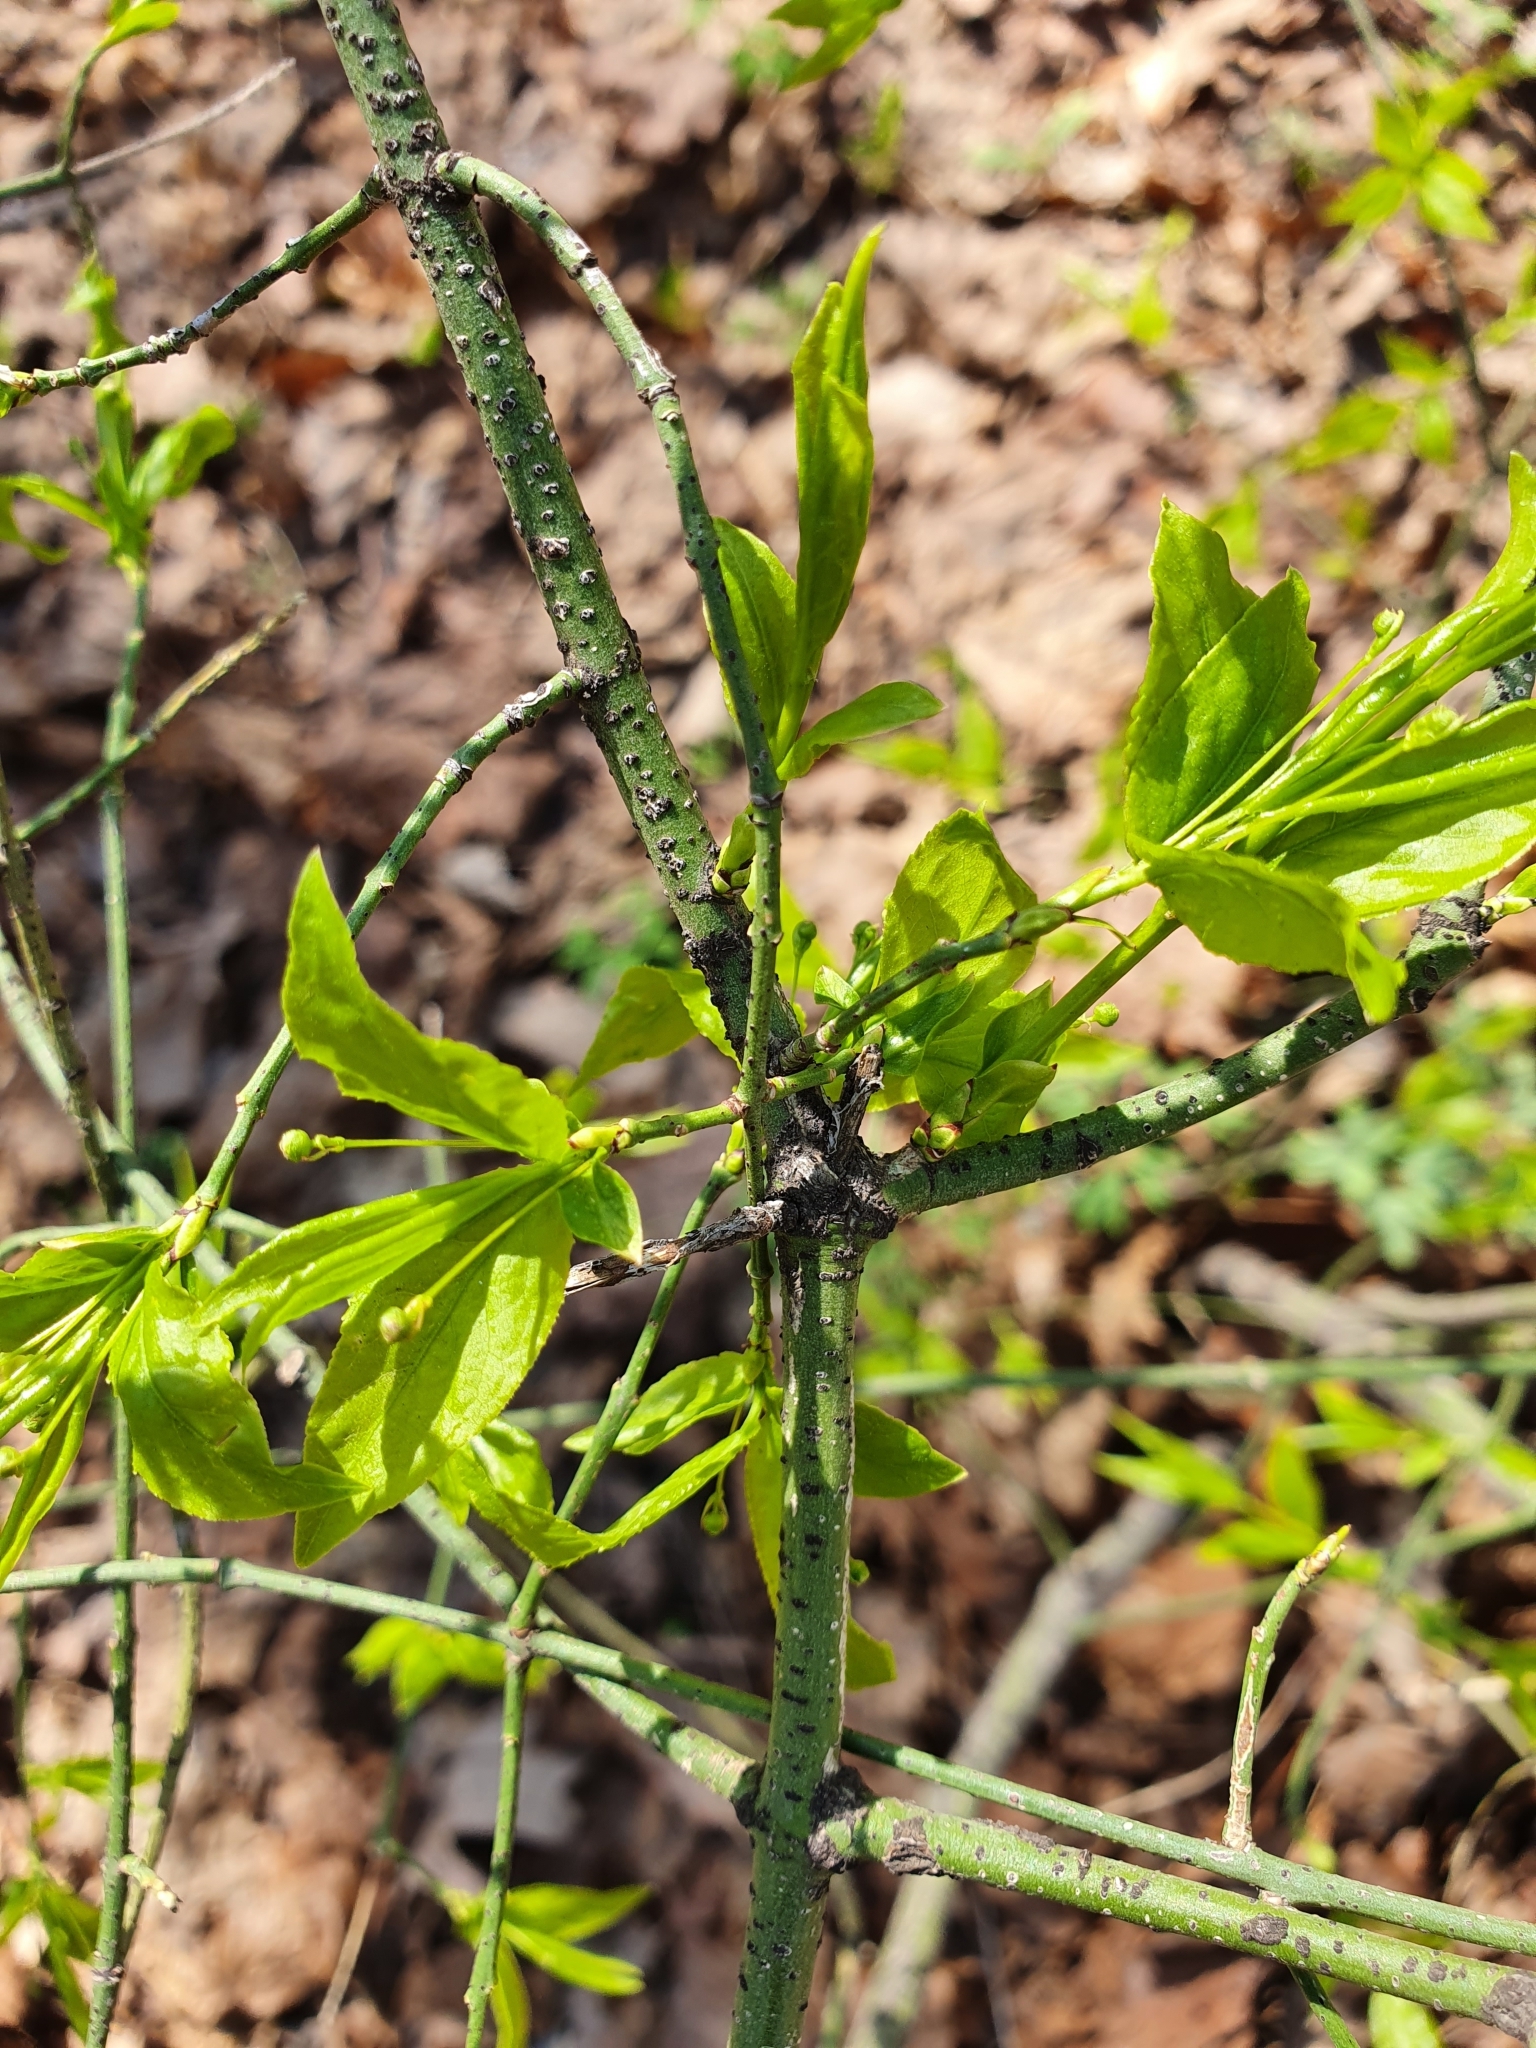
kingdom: Plantae
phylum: Tracheophyta
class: Magnoliopsida
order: Celastrales
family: Celastraceae
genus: Euonymus
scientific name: Euonymus verrucosus
